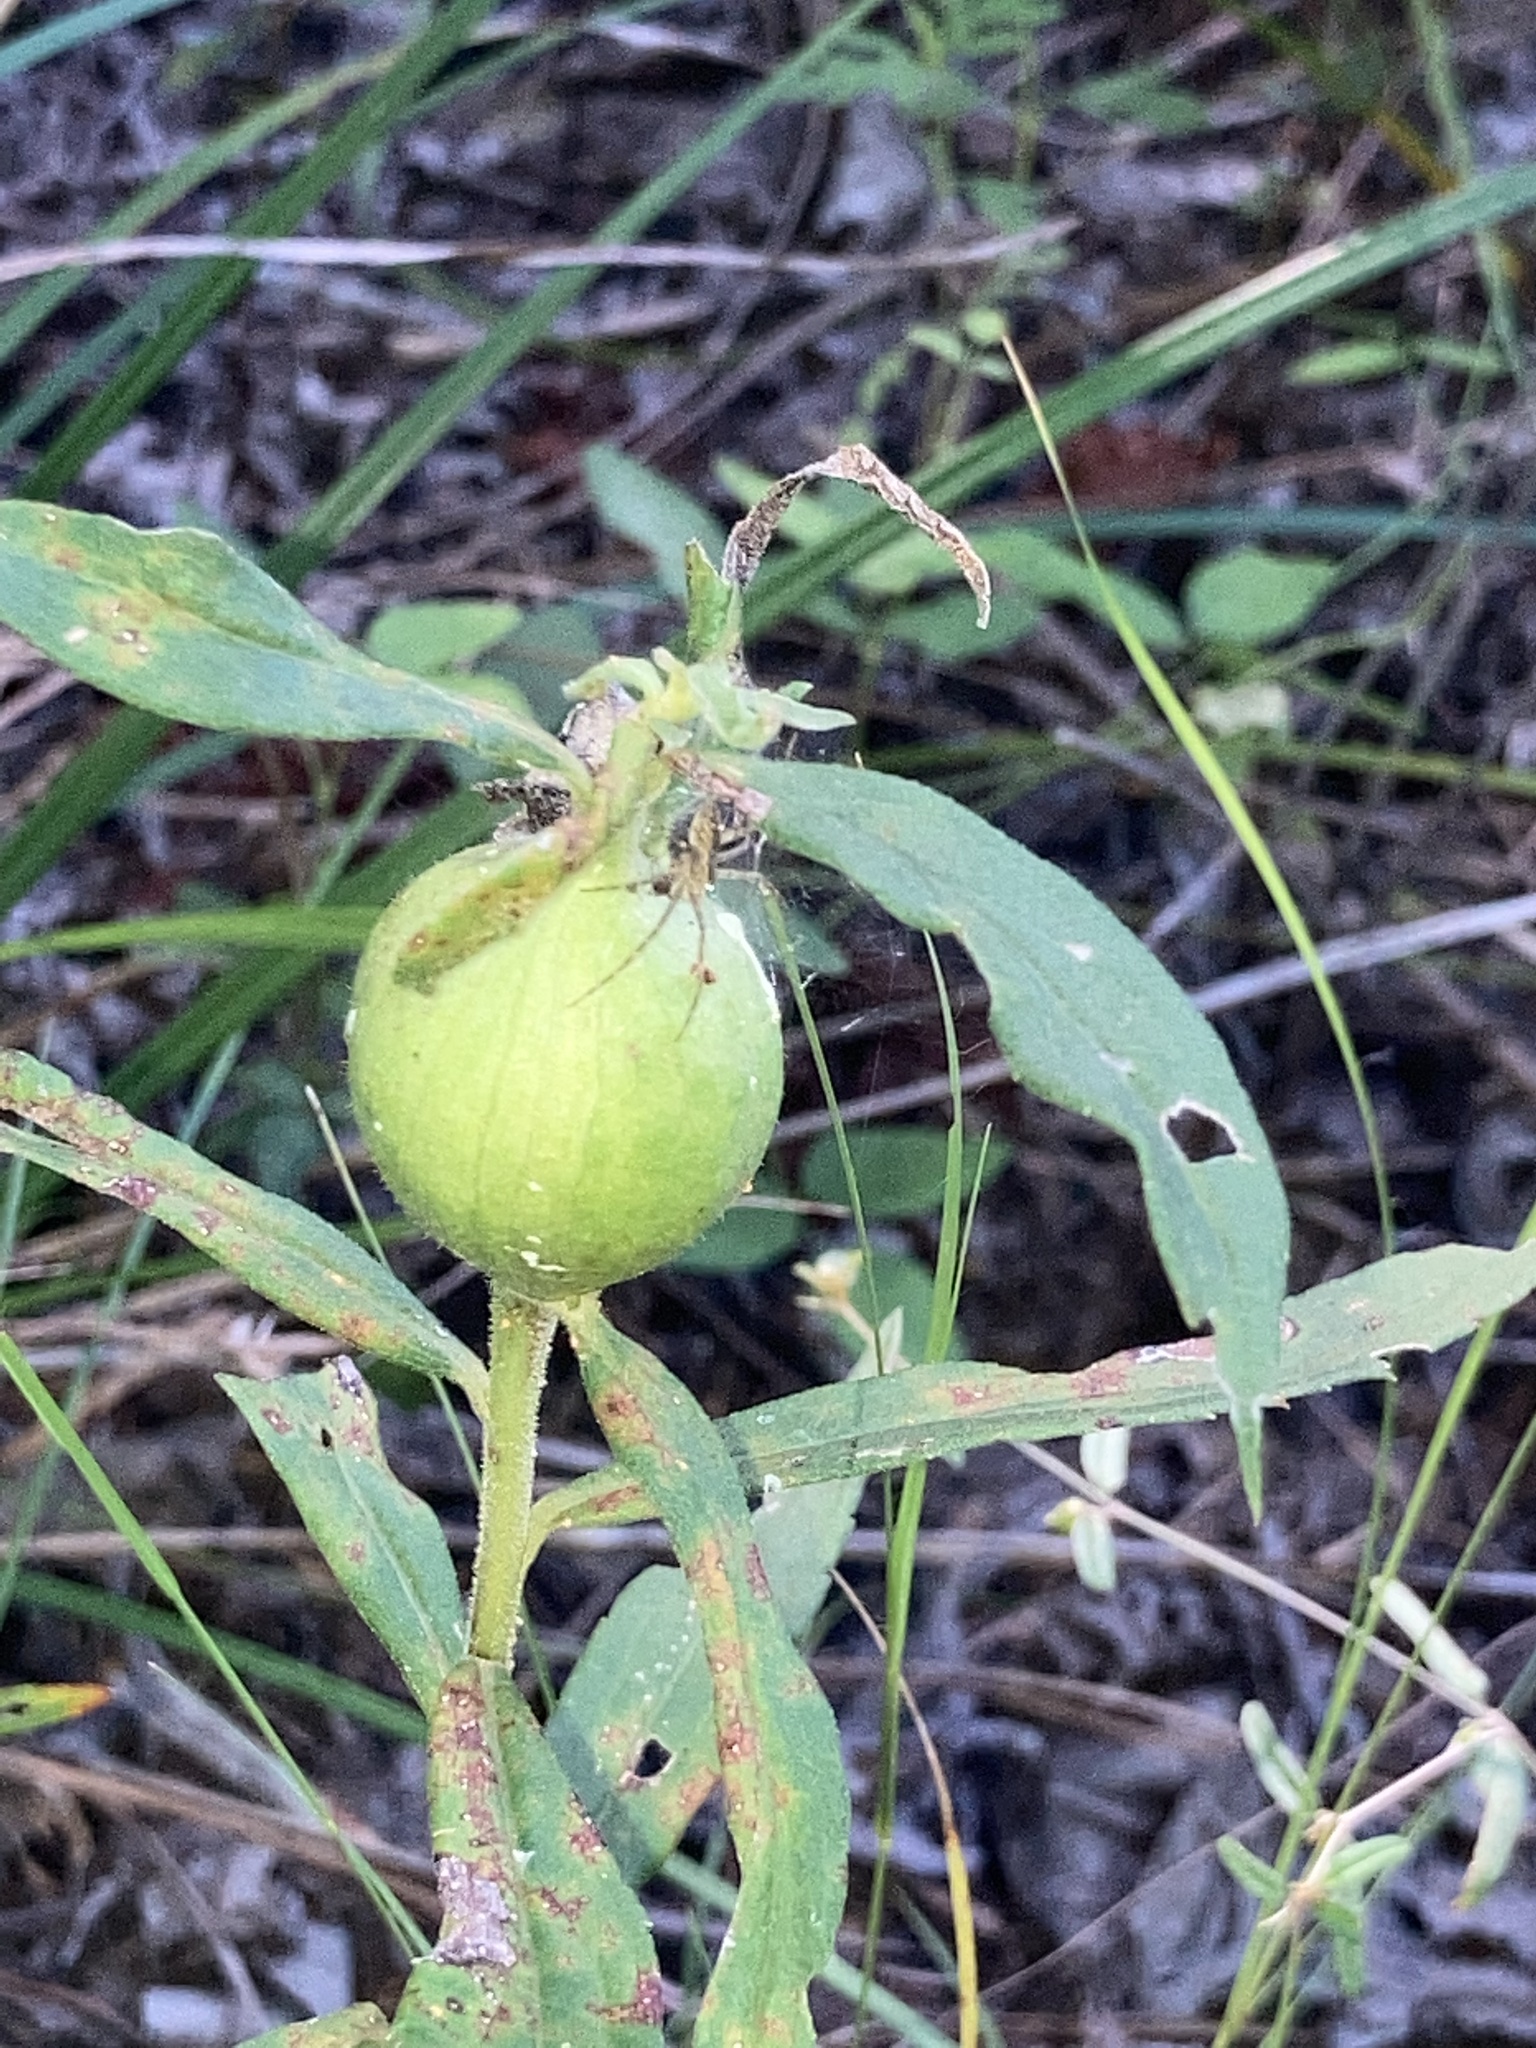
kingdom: Animalia
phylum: Arthropoda
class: Insecta
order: Diptera
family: Tephritidae
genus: Eurosta
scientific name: Eurosta solidaginis
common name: Goldenrod gall fly
